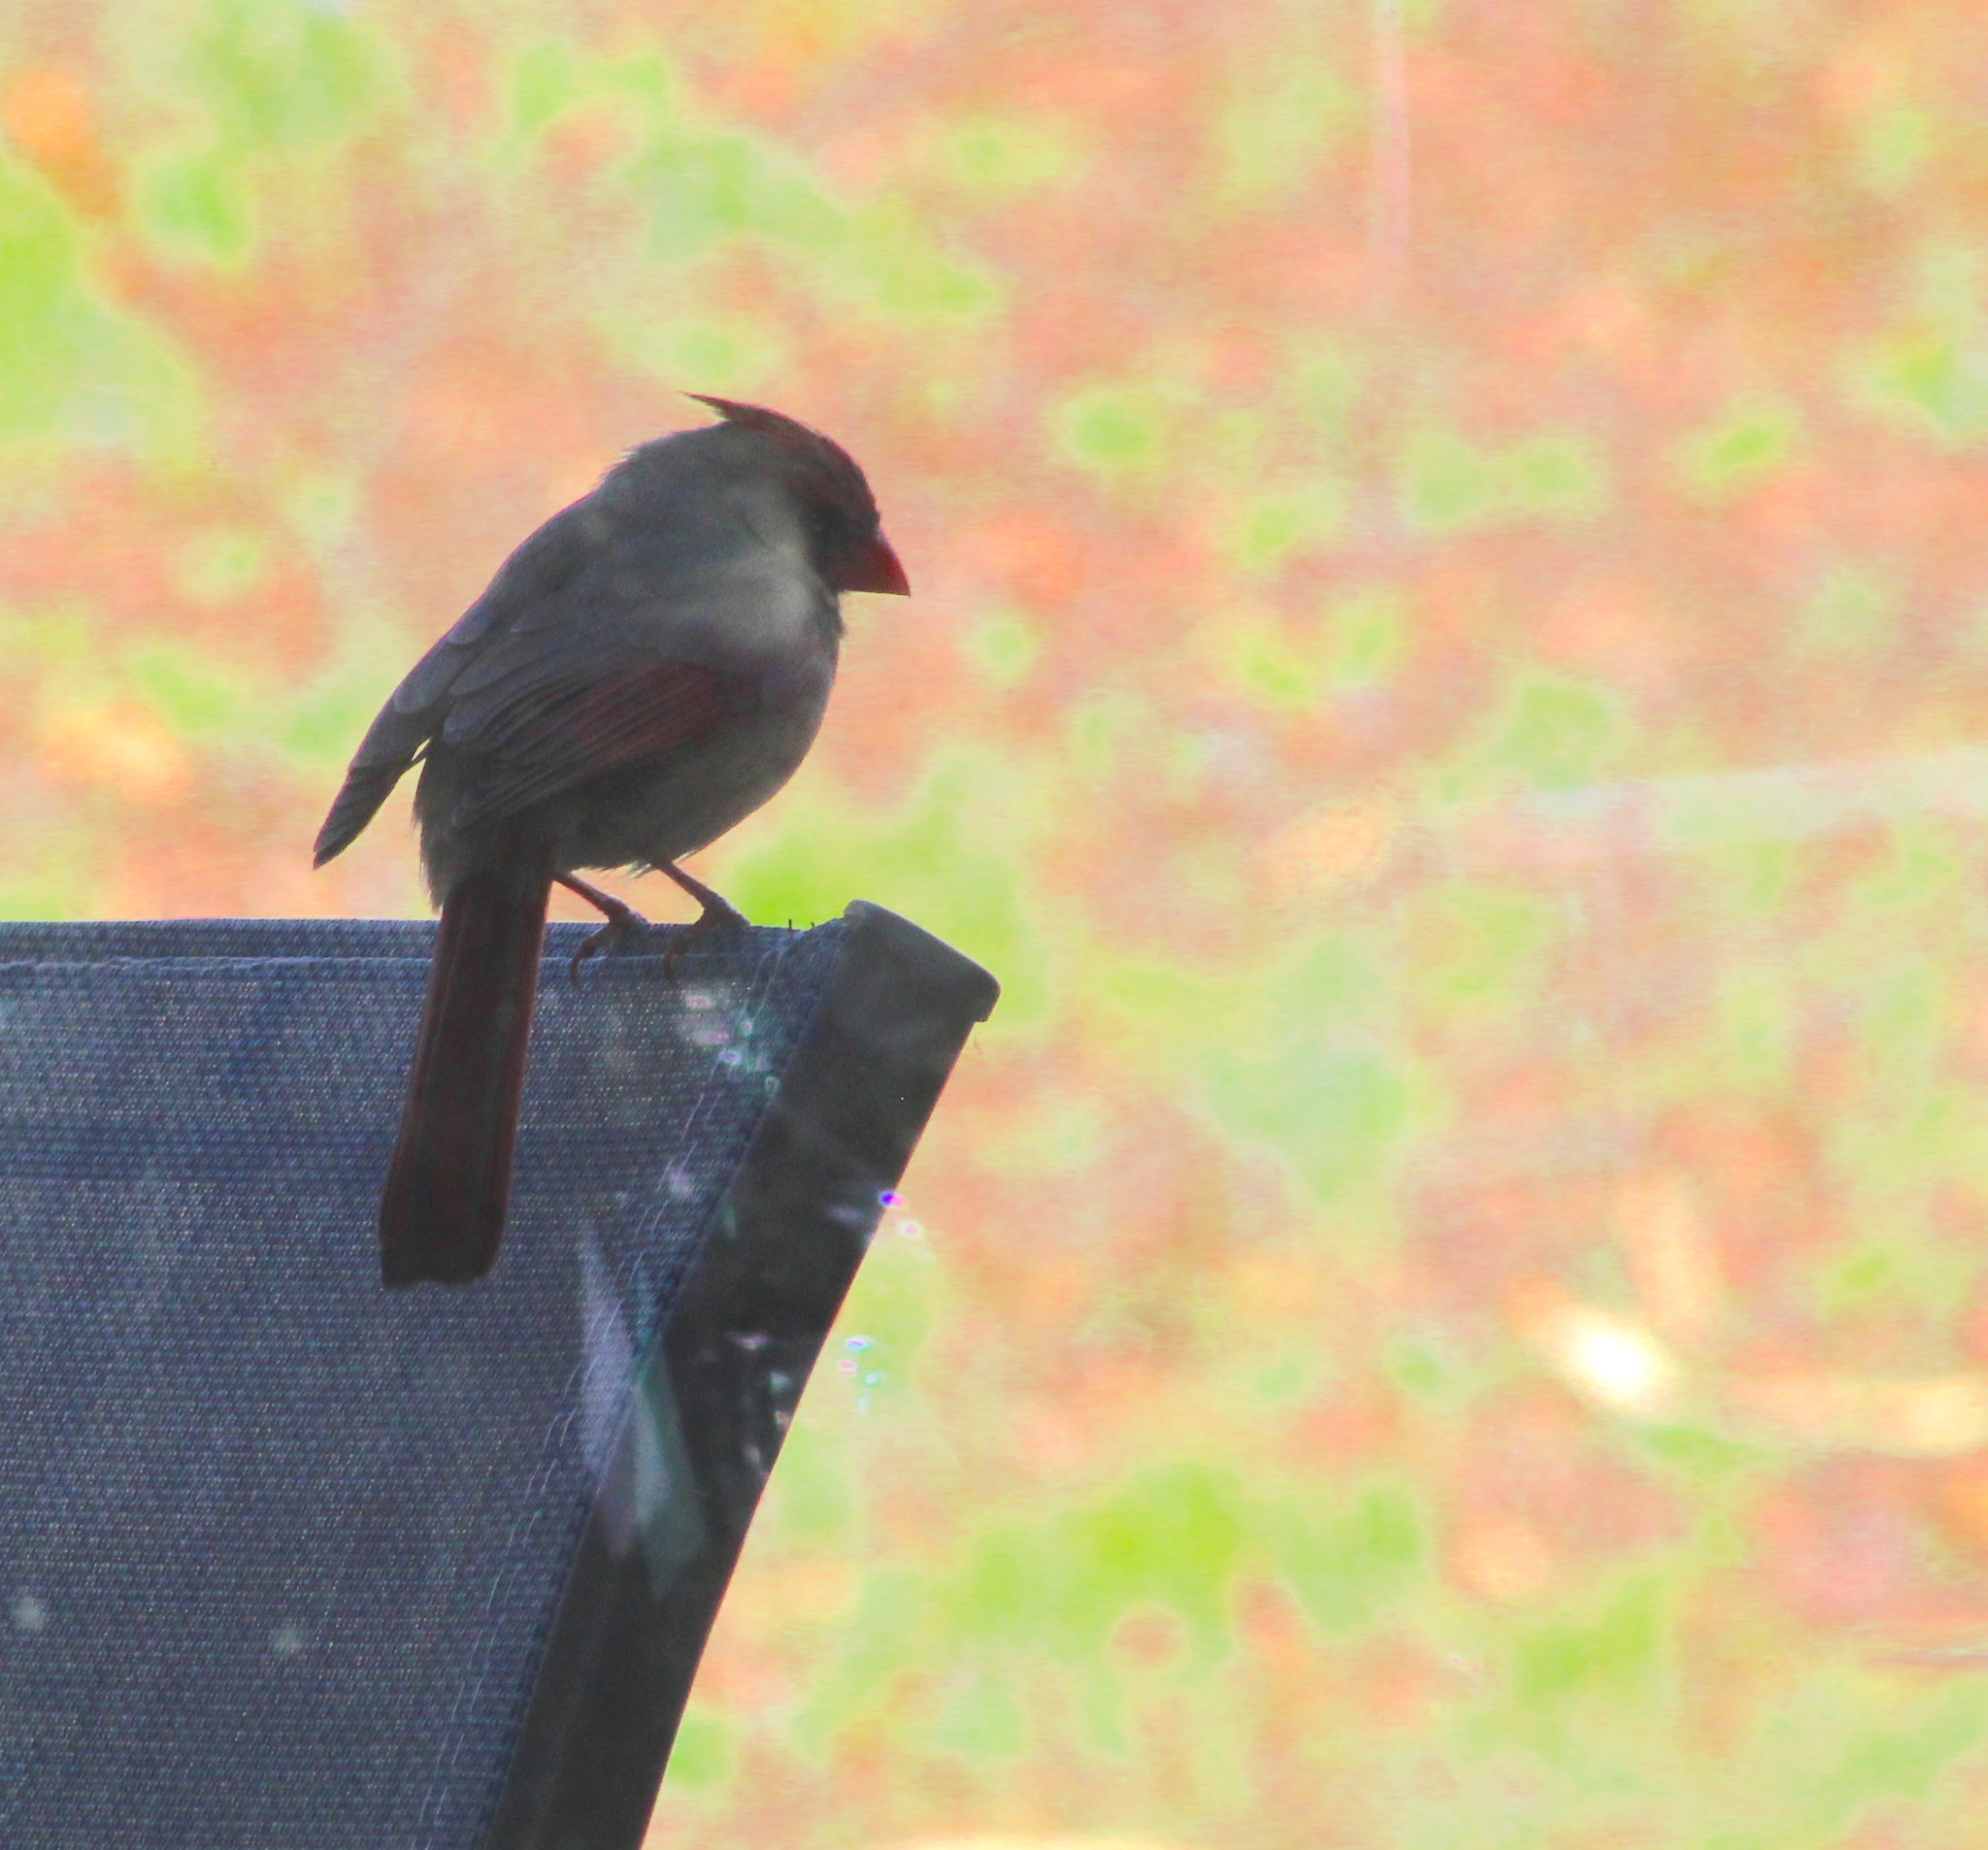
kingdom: Animalia
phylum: Chordata
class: Aves
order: Passeriformes
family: Cardinalidae
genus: Cardinalis
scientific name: Cardinalis cardinalis
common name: Northern cardinal
